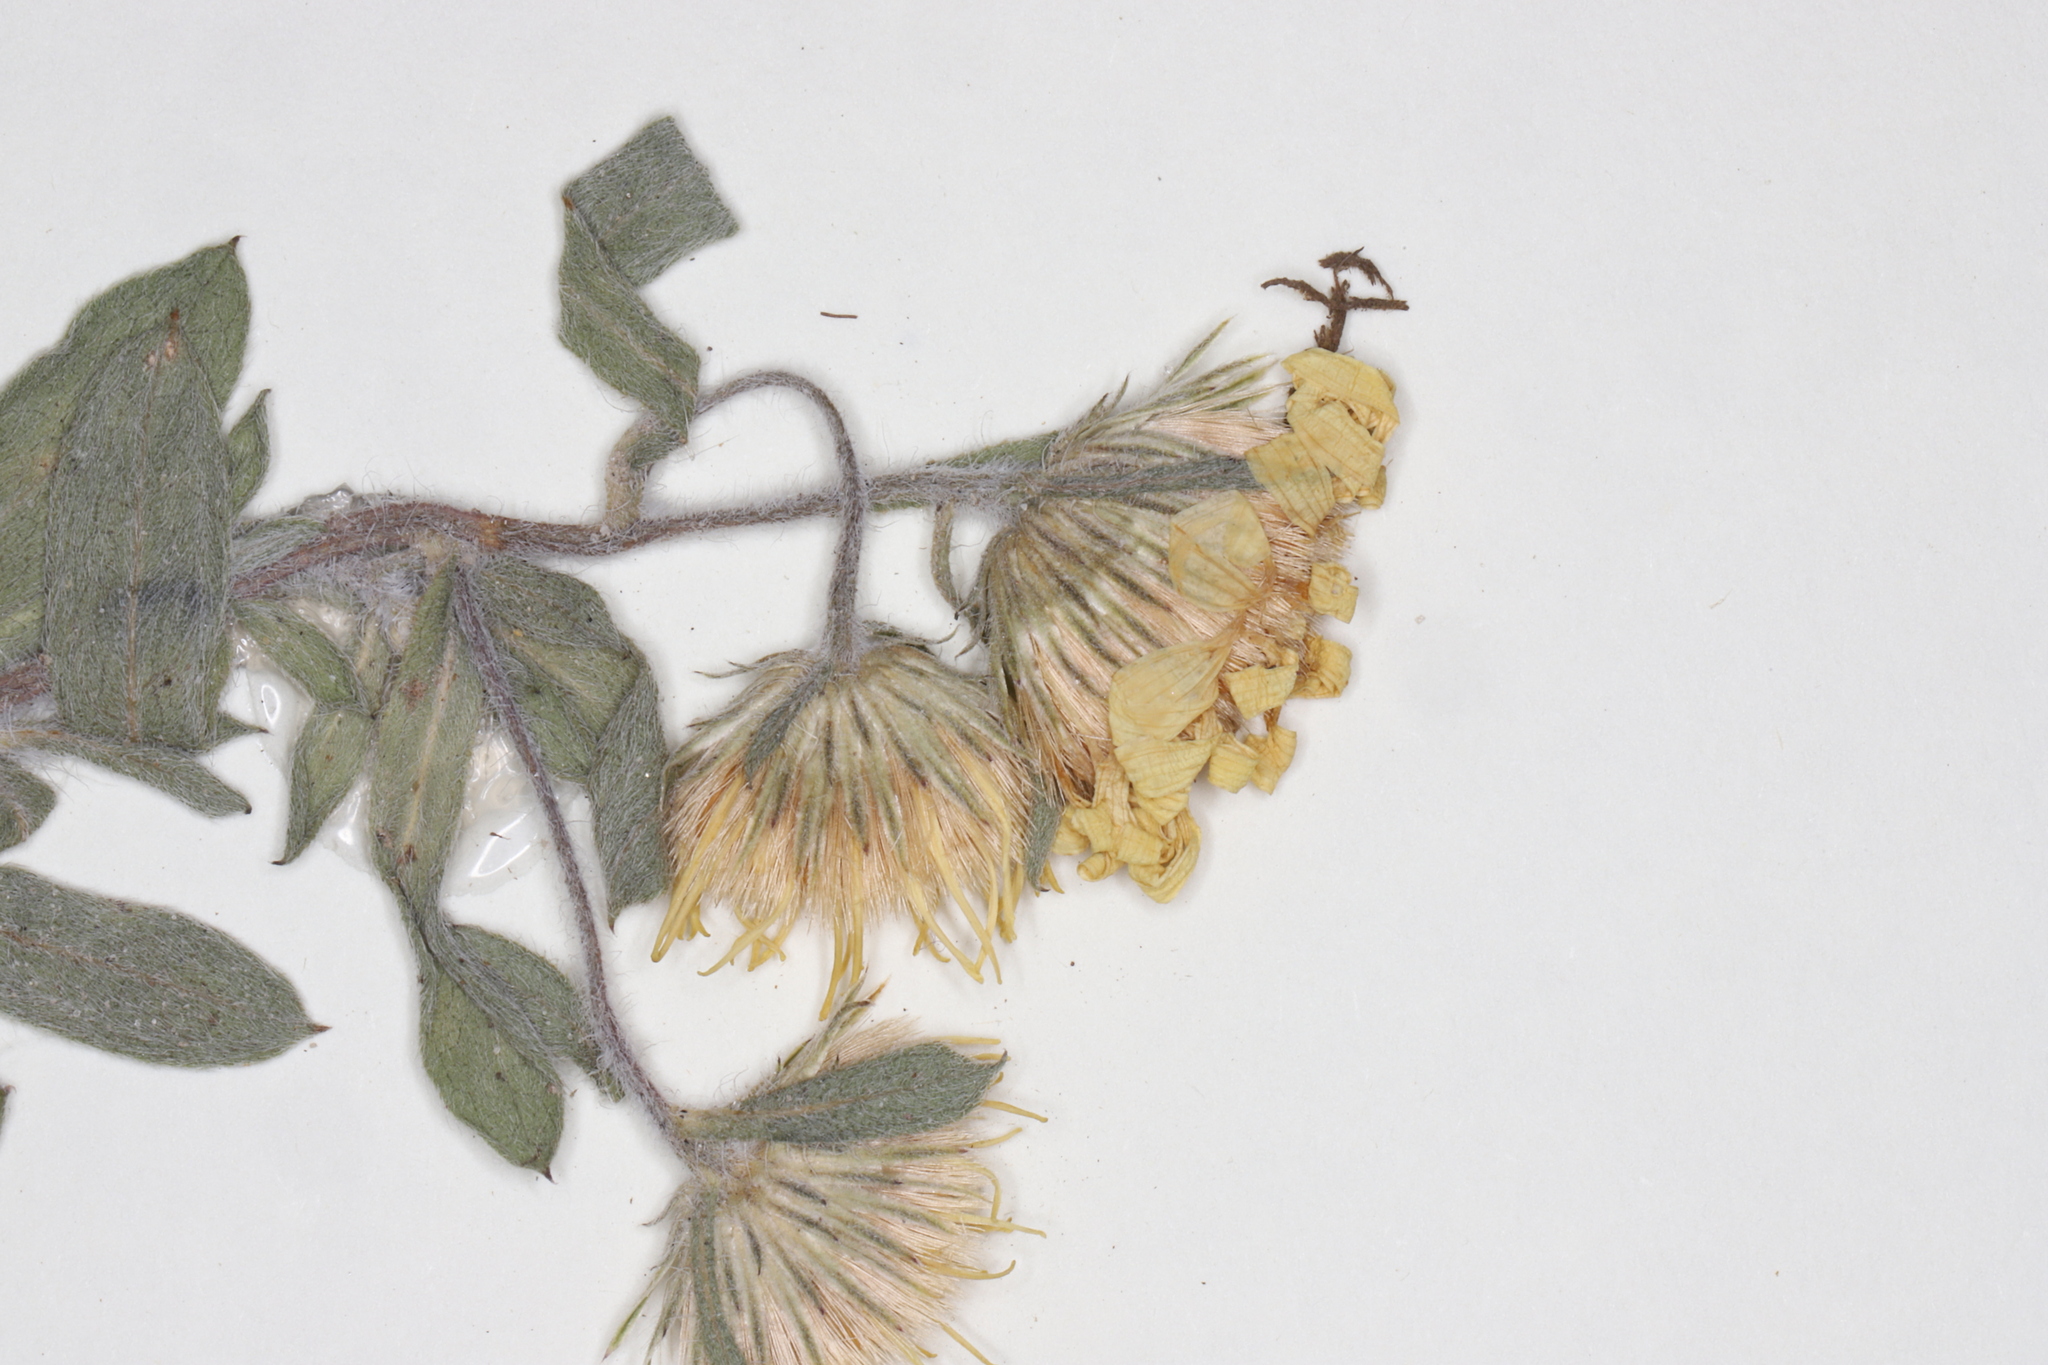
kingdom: Plantae
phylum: Tracheophyta
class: Magnoliopsida
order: Asterales
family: Asteraceae
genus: Heterotheca
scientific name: Heterotheca villosa
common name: Hairy false goldenaster
